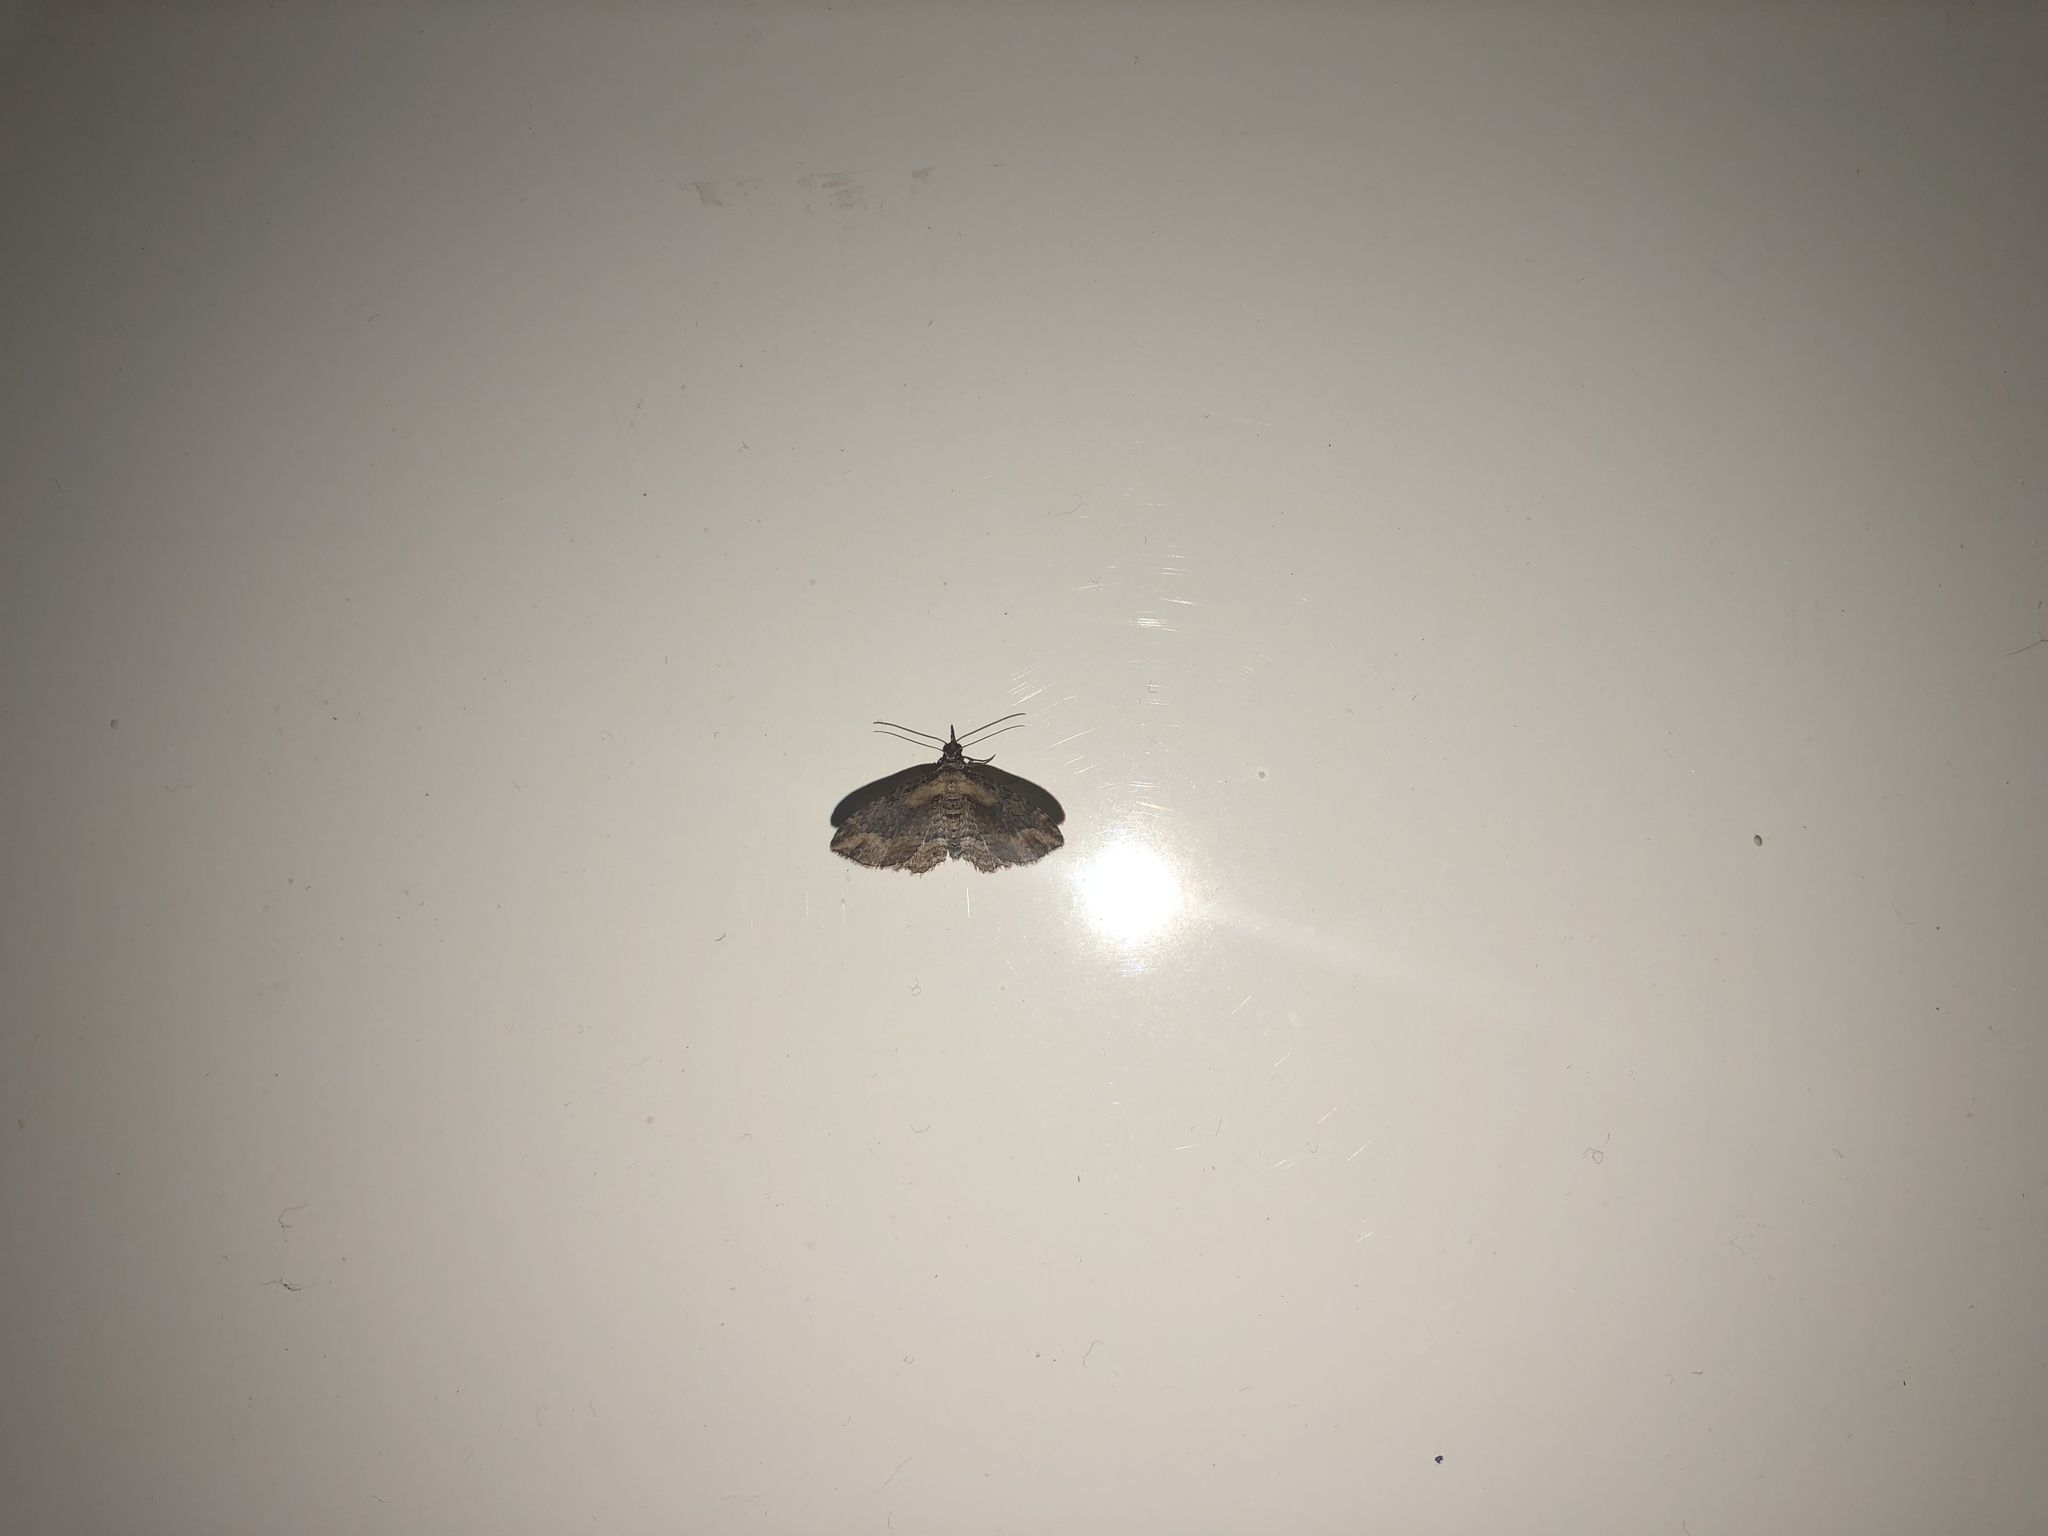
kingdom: Animalia
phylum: Arthropoda
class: Insecta
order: Lepidoptera
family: Geometridae
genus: Chloroclystis
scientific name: Chloroclystis filata
